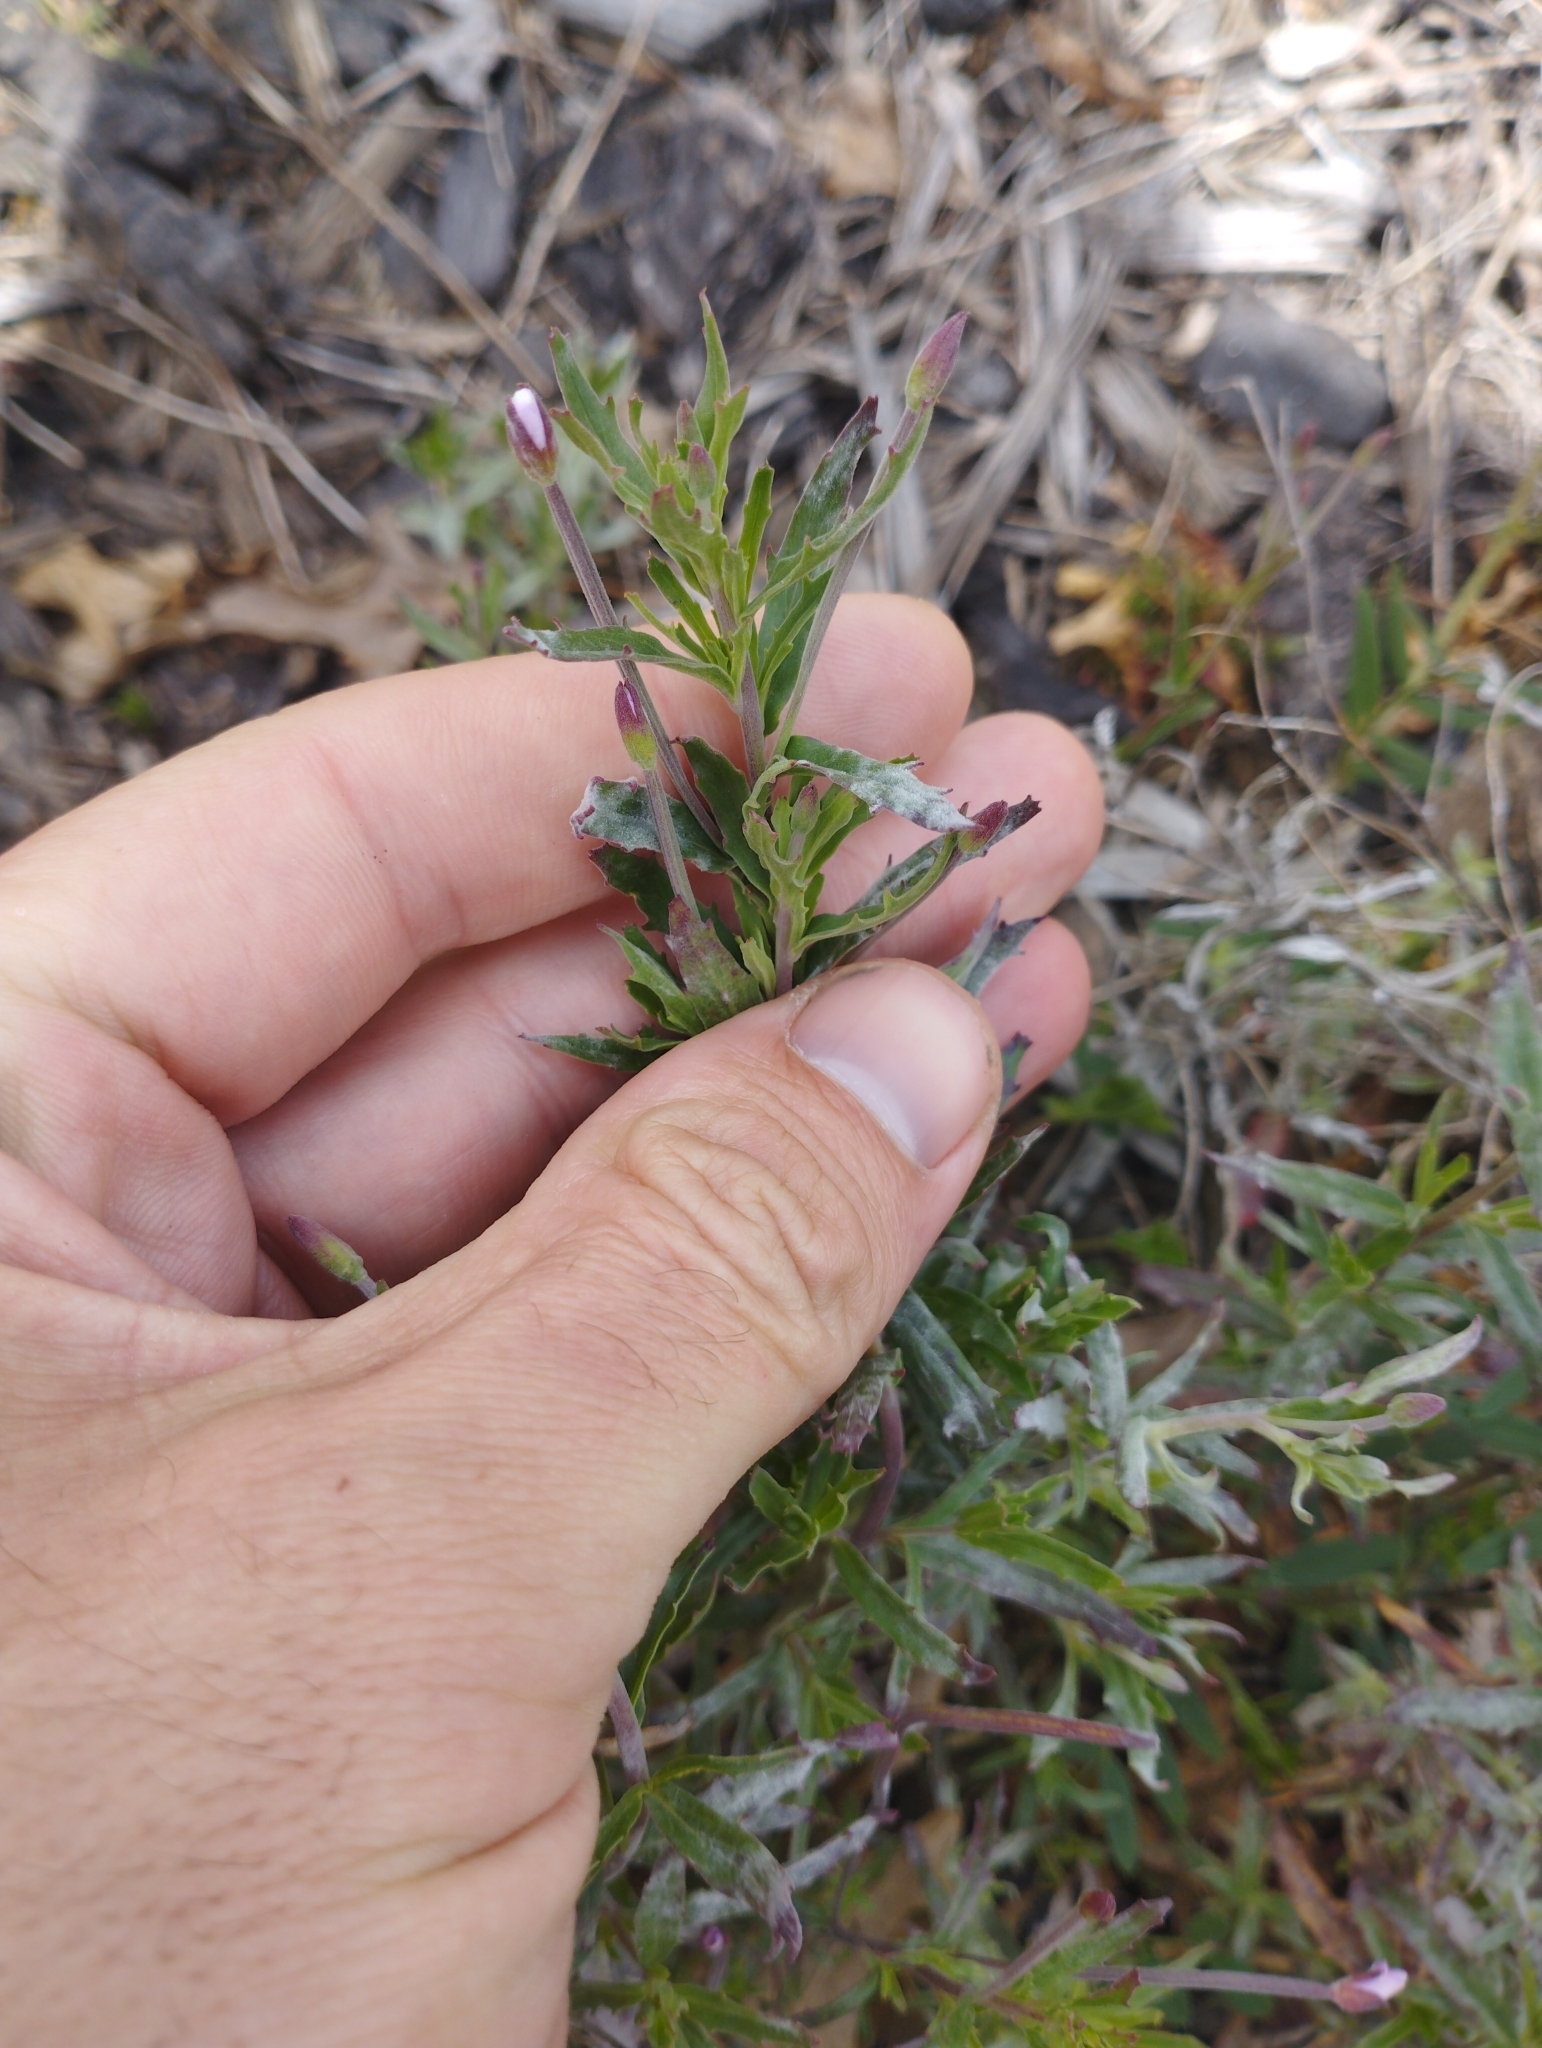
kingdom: Plantae
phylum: Tracheophyta
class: Magnoliopsida
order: Myrtales
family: Onagraceae
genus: Epilobium
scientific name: Epilobium billardierianum
